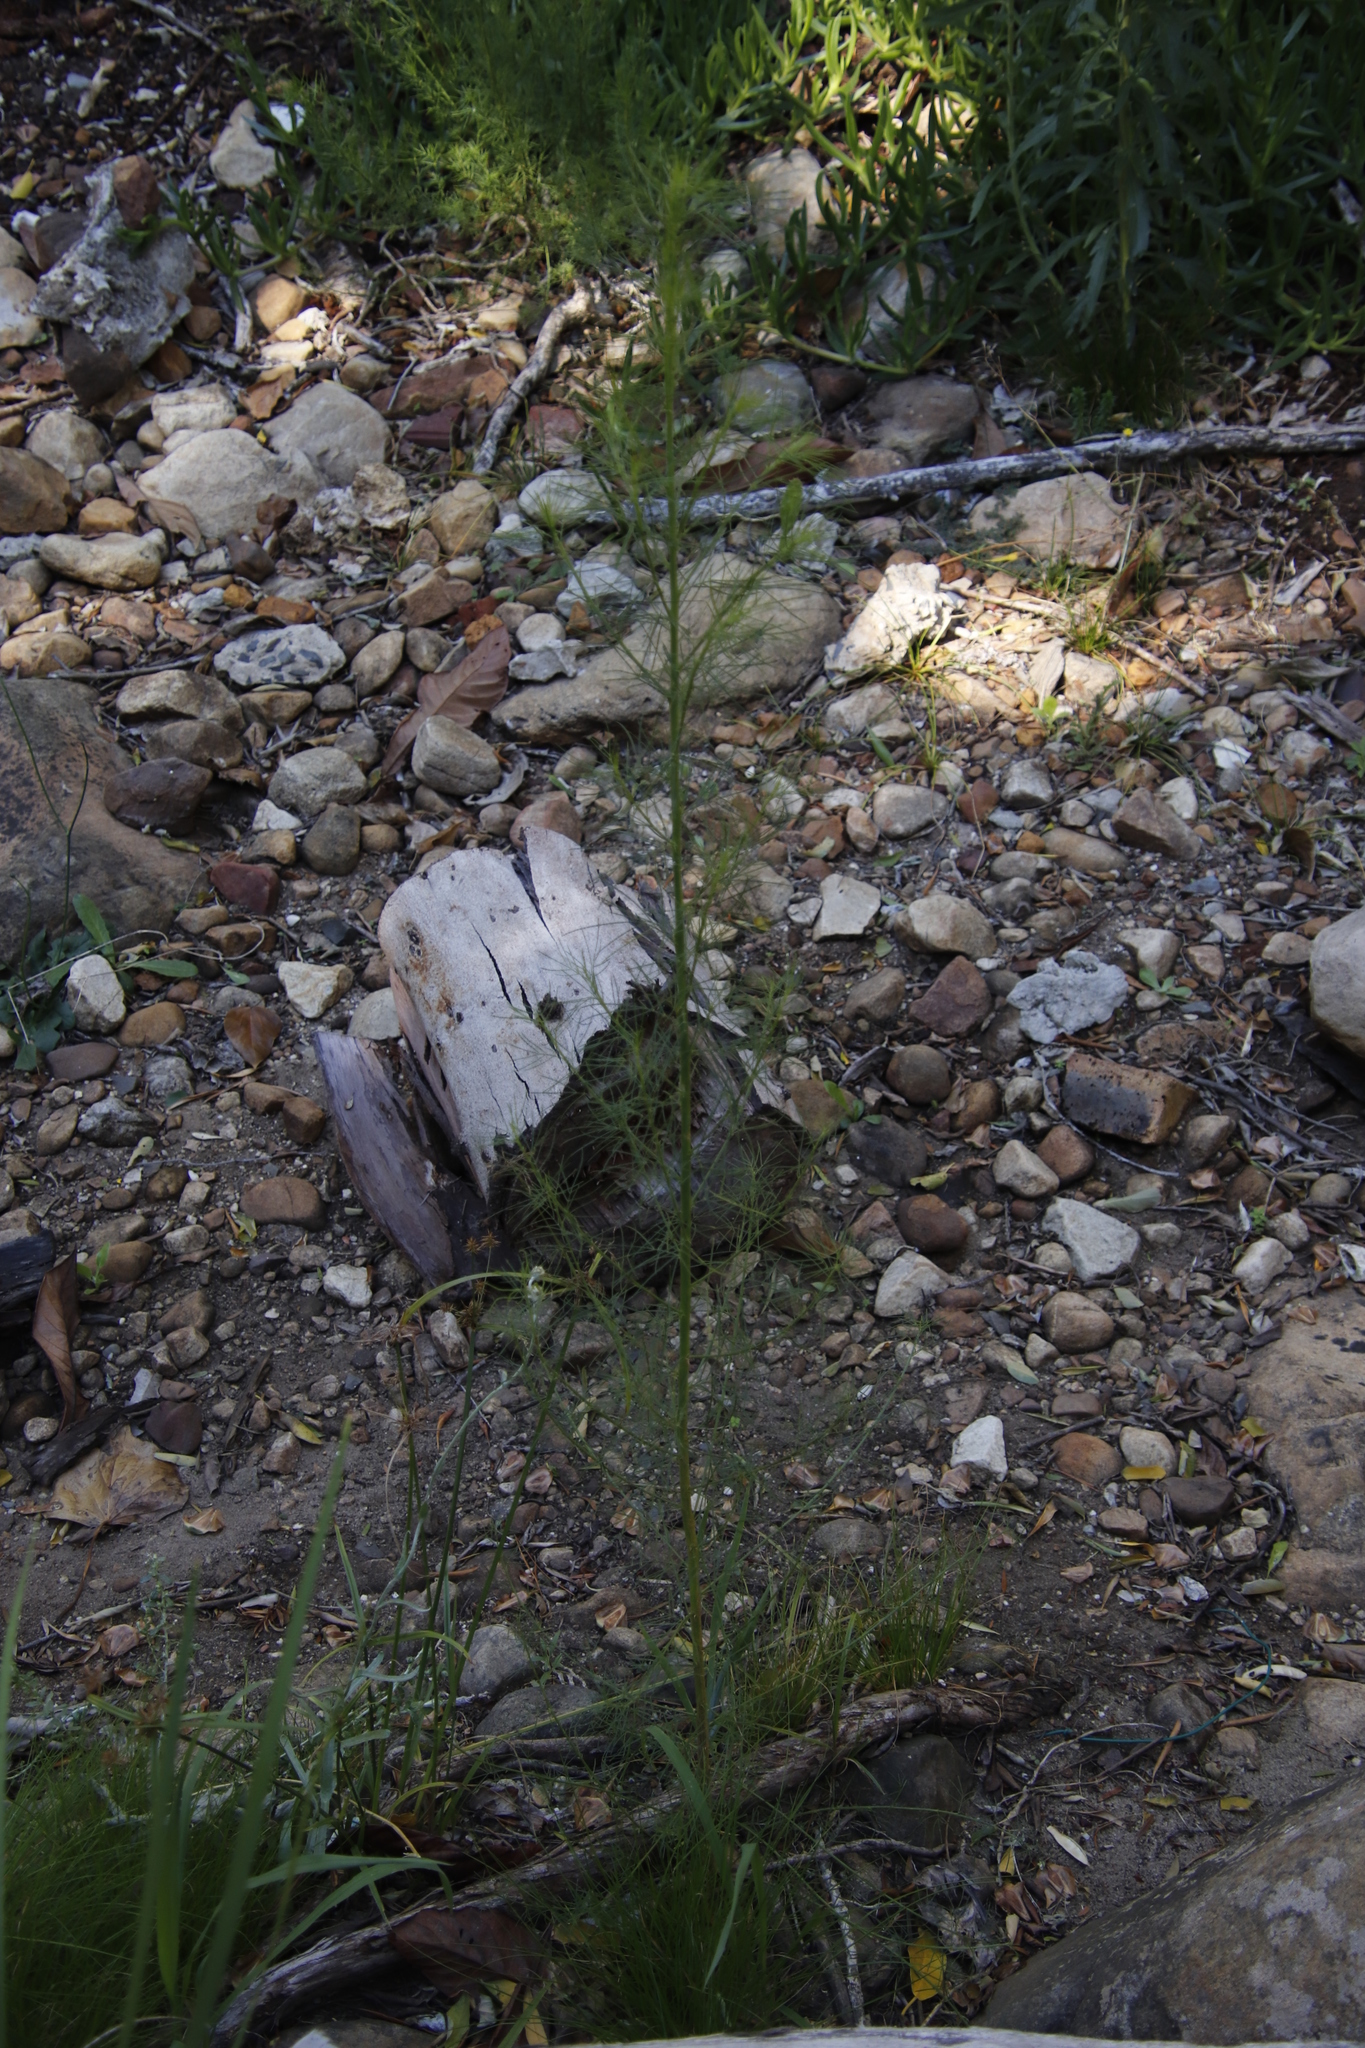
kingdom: Plantae
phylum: Tracheophyta
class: Magnoliopsida
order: Fabales
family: Fabaceae
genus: Psoralea
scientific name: Psoralea pinnata
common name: African scurfpea
